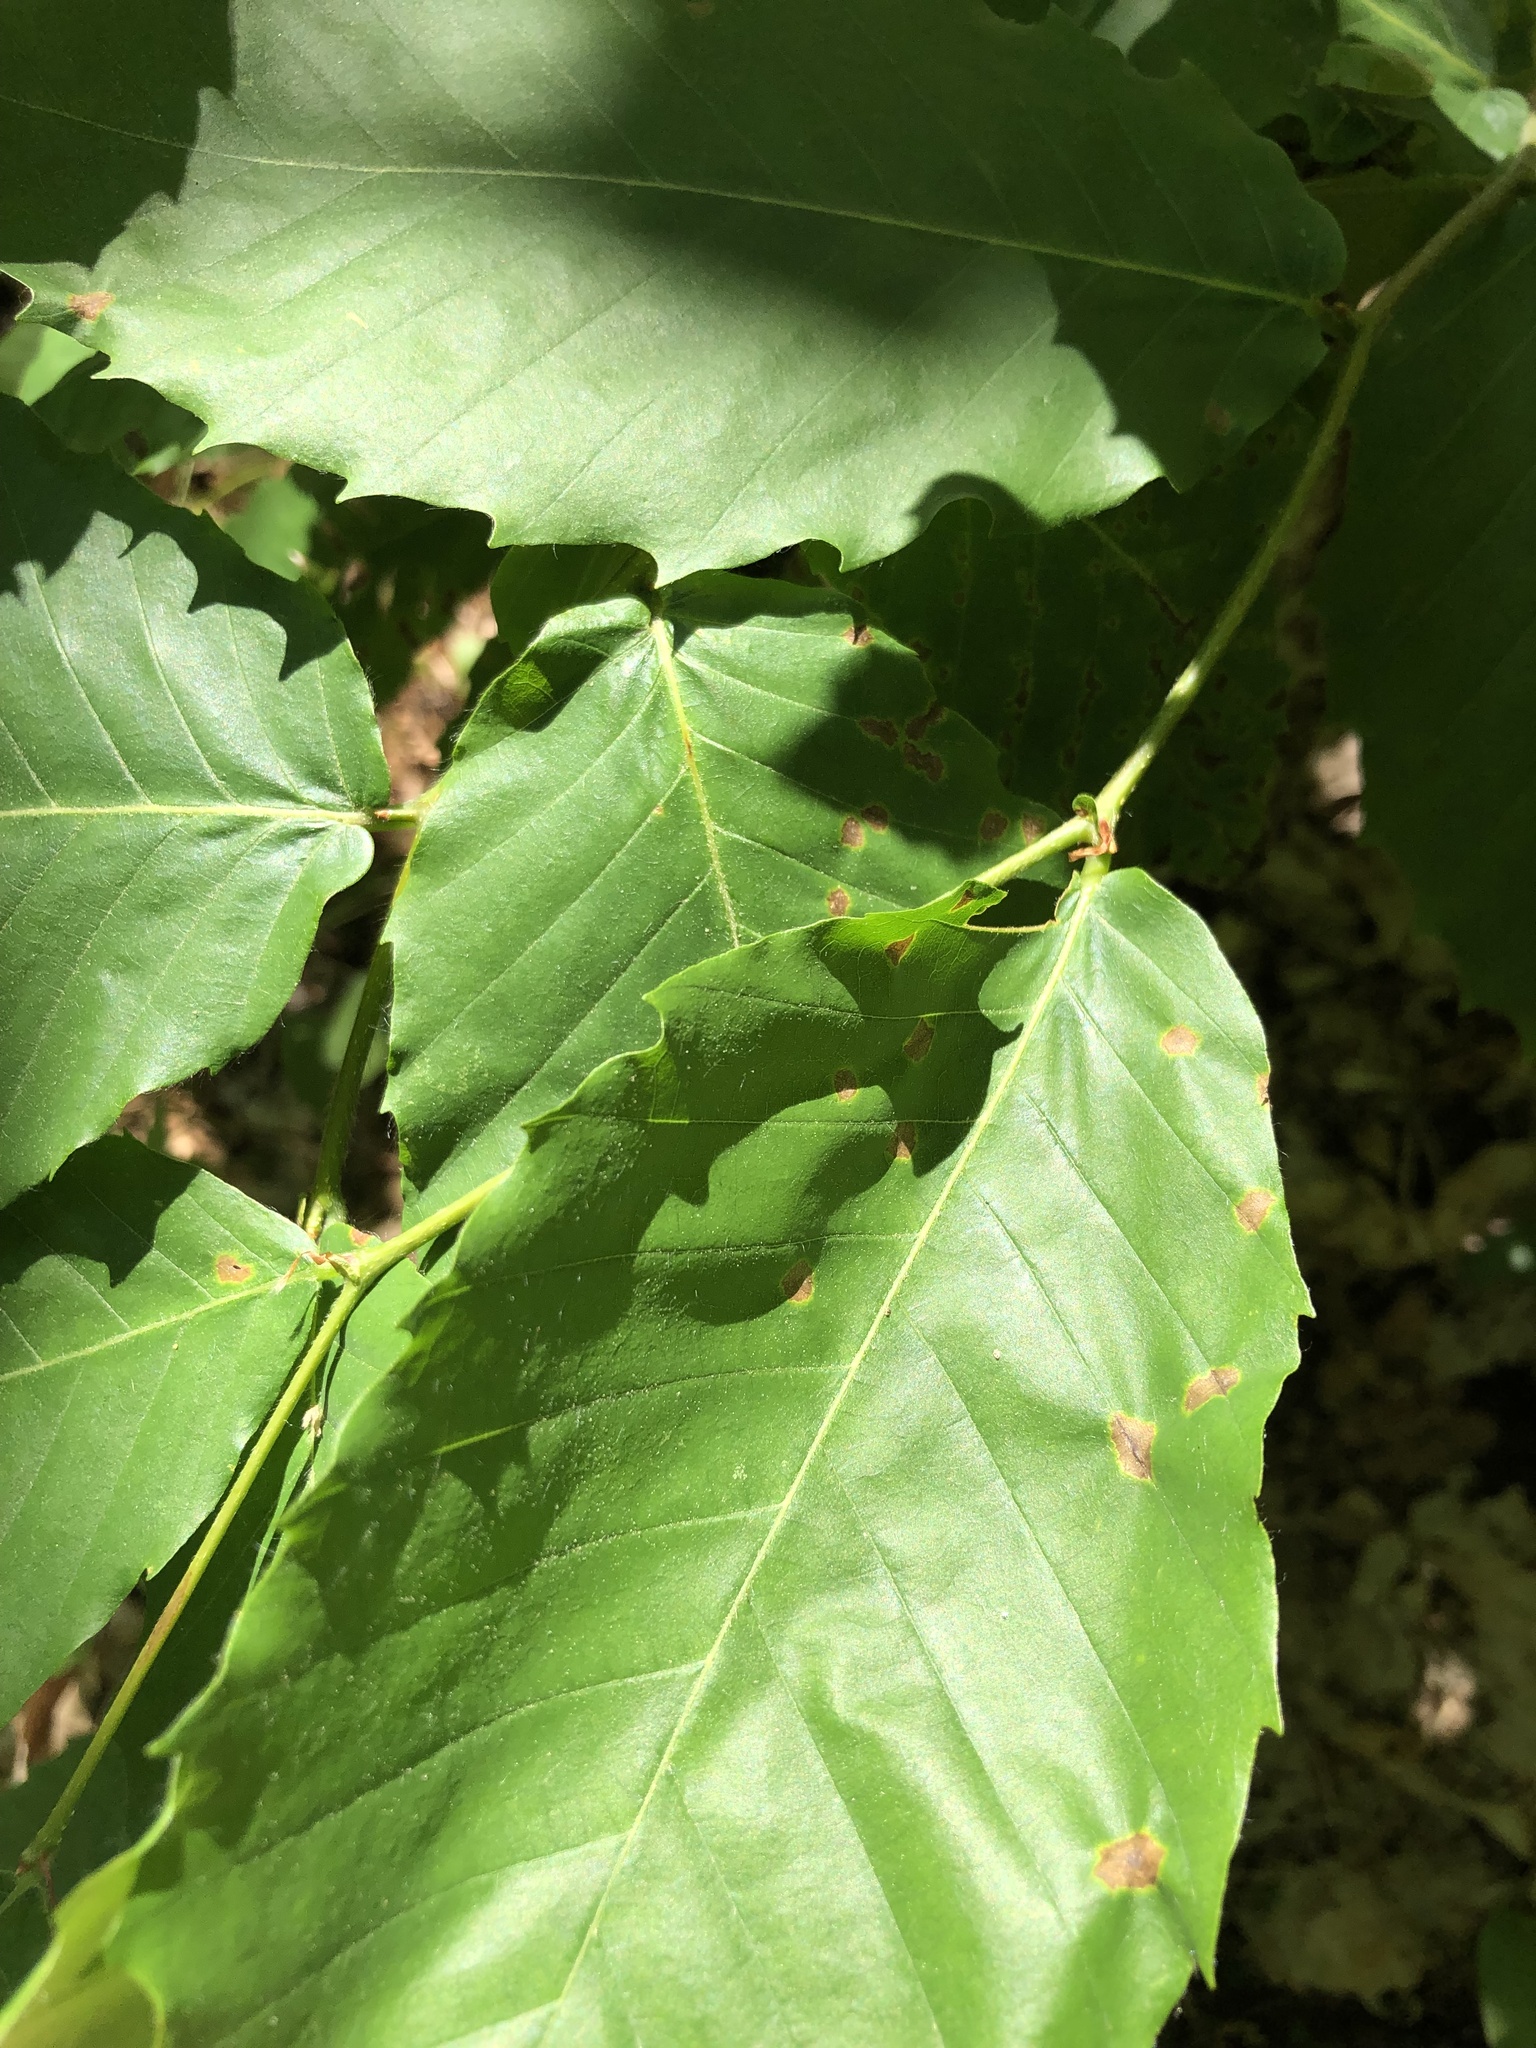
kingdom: Plantae
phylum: Tracheophyta
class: Magnoliopsida
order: Fagales
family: Fagaceae
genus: Fagus
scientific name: Fagus grandifolia
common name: American beech
